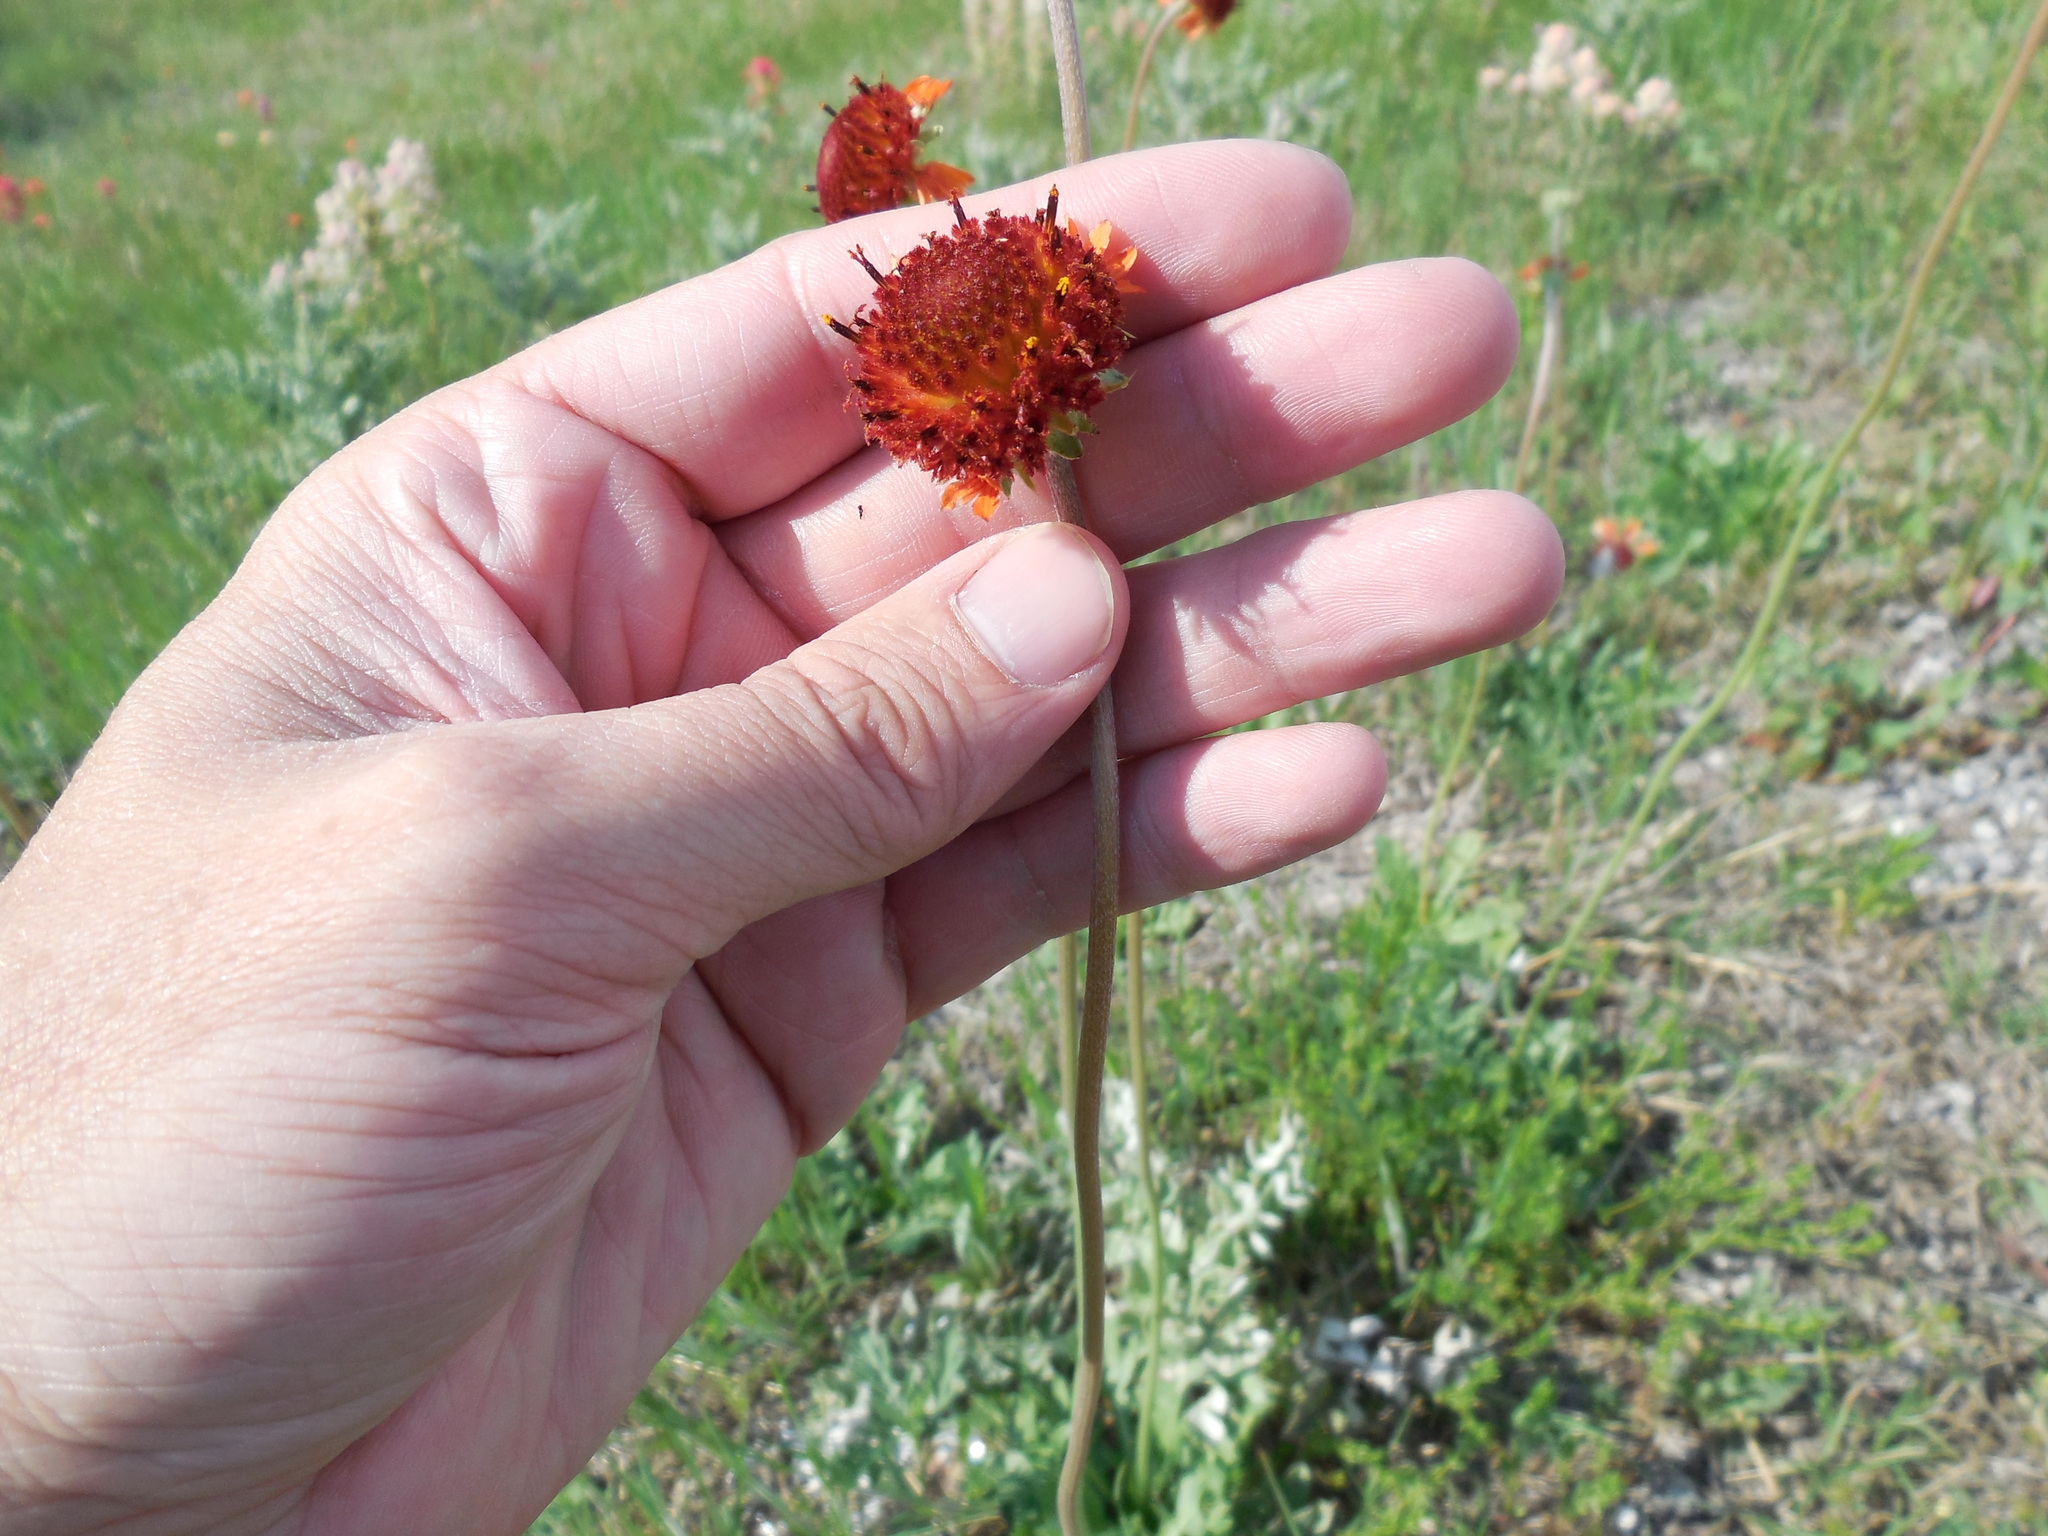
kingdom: Plantae
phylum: Tracheophyta
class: Magnoliopsida
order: Asterales
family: Asteraceae
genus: Gaillardia
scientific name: Gaillardia suavis
